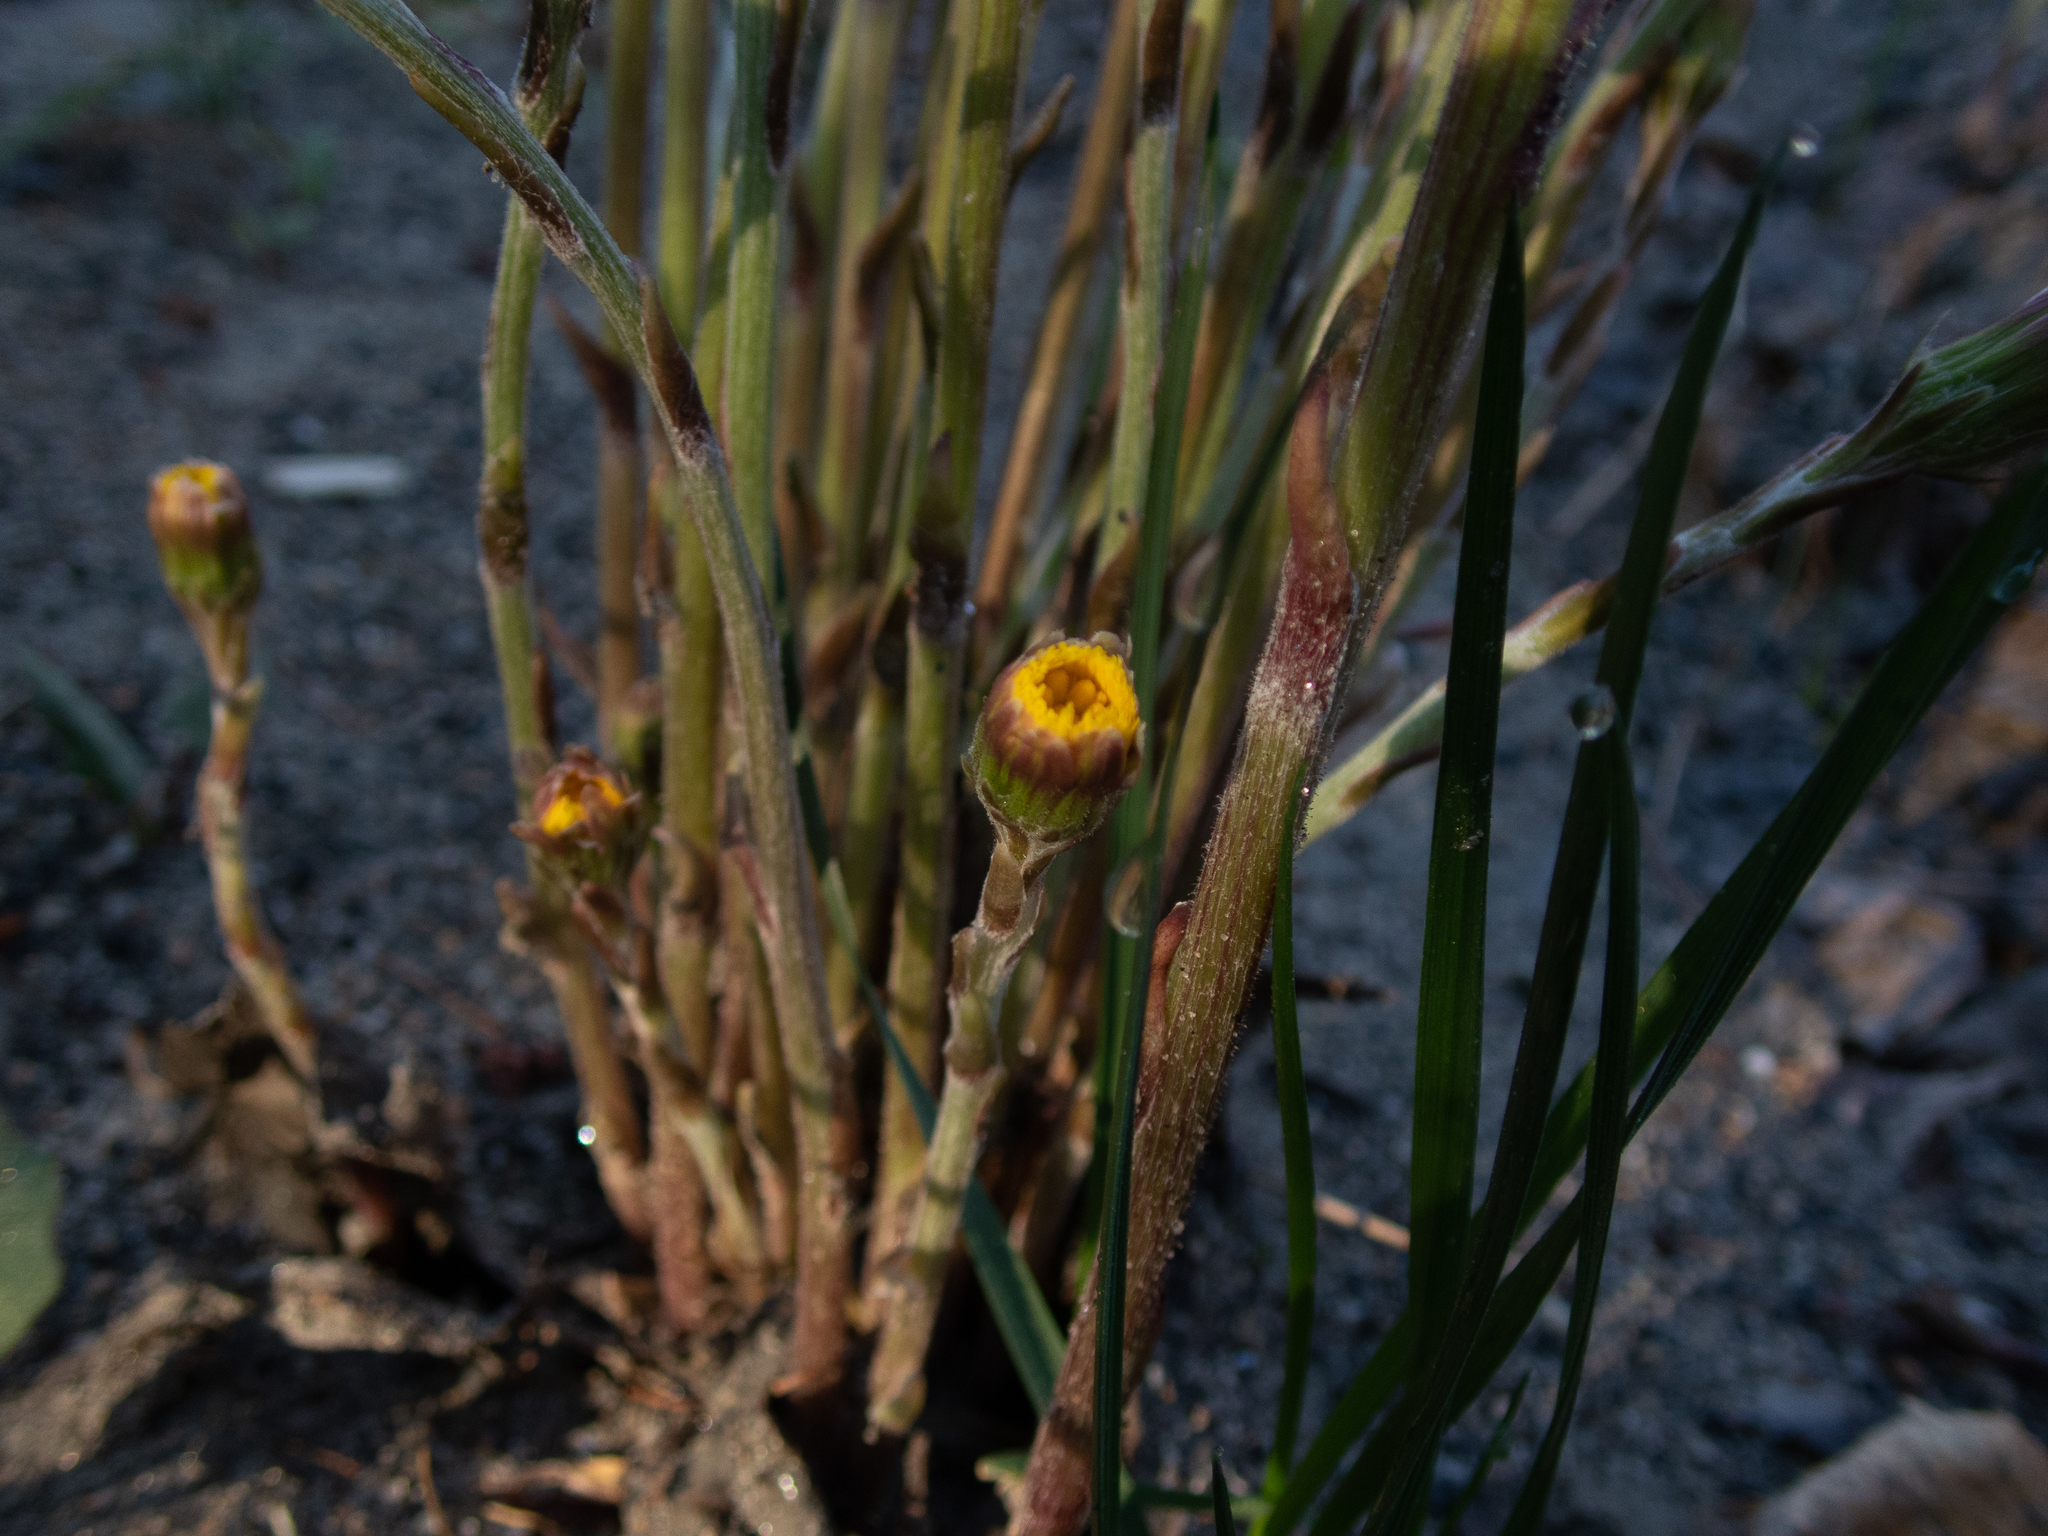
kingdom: Plantae
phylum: Tracheophyta
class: Magnoliopsida
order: Asterales
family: Asteraceae
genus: Tussilago
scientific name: Tussilago farfara
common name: Coltsfoot
